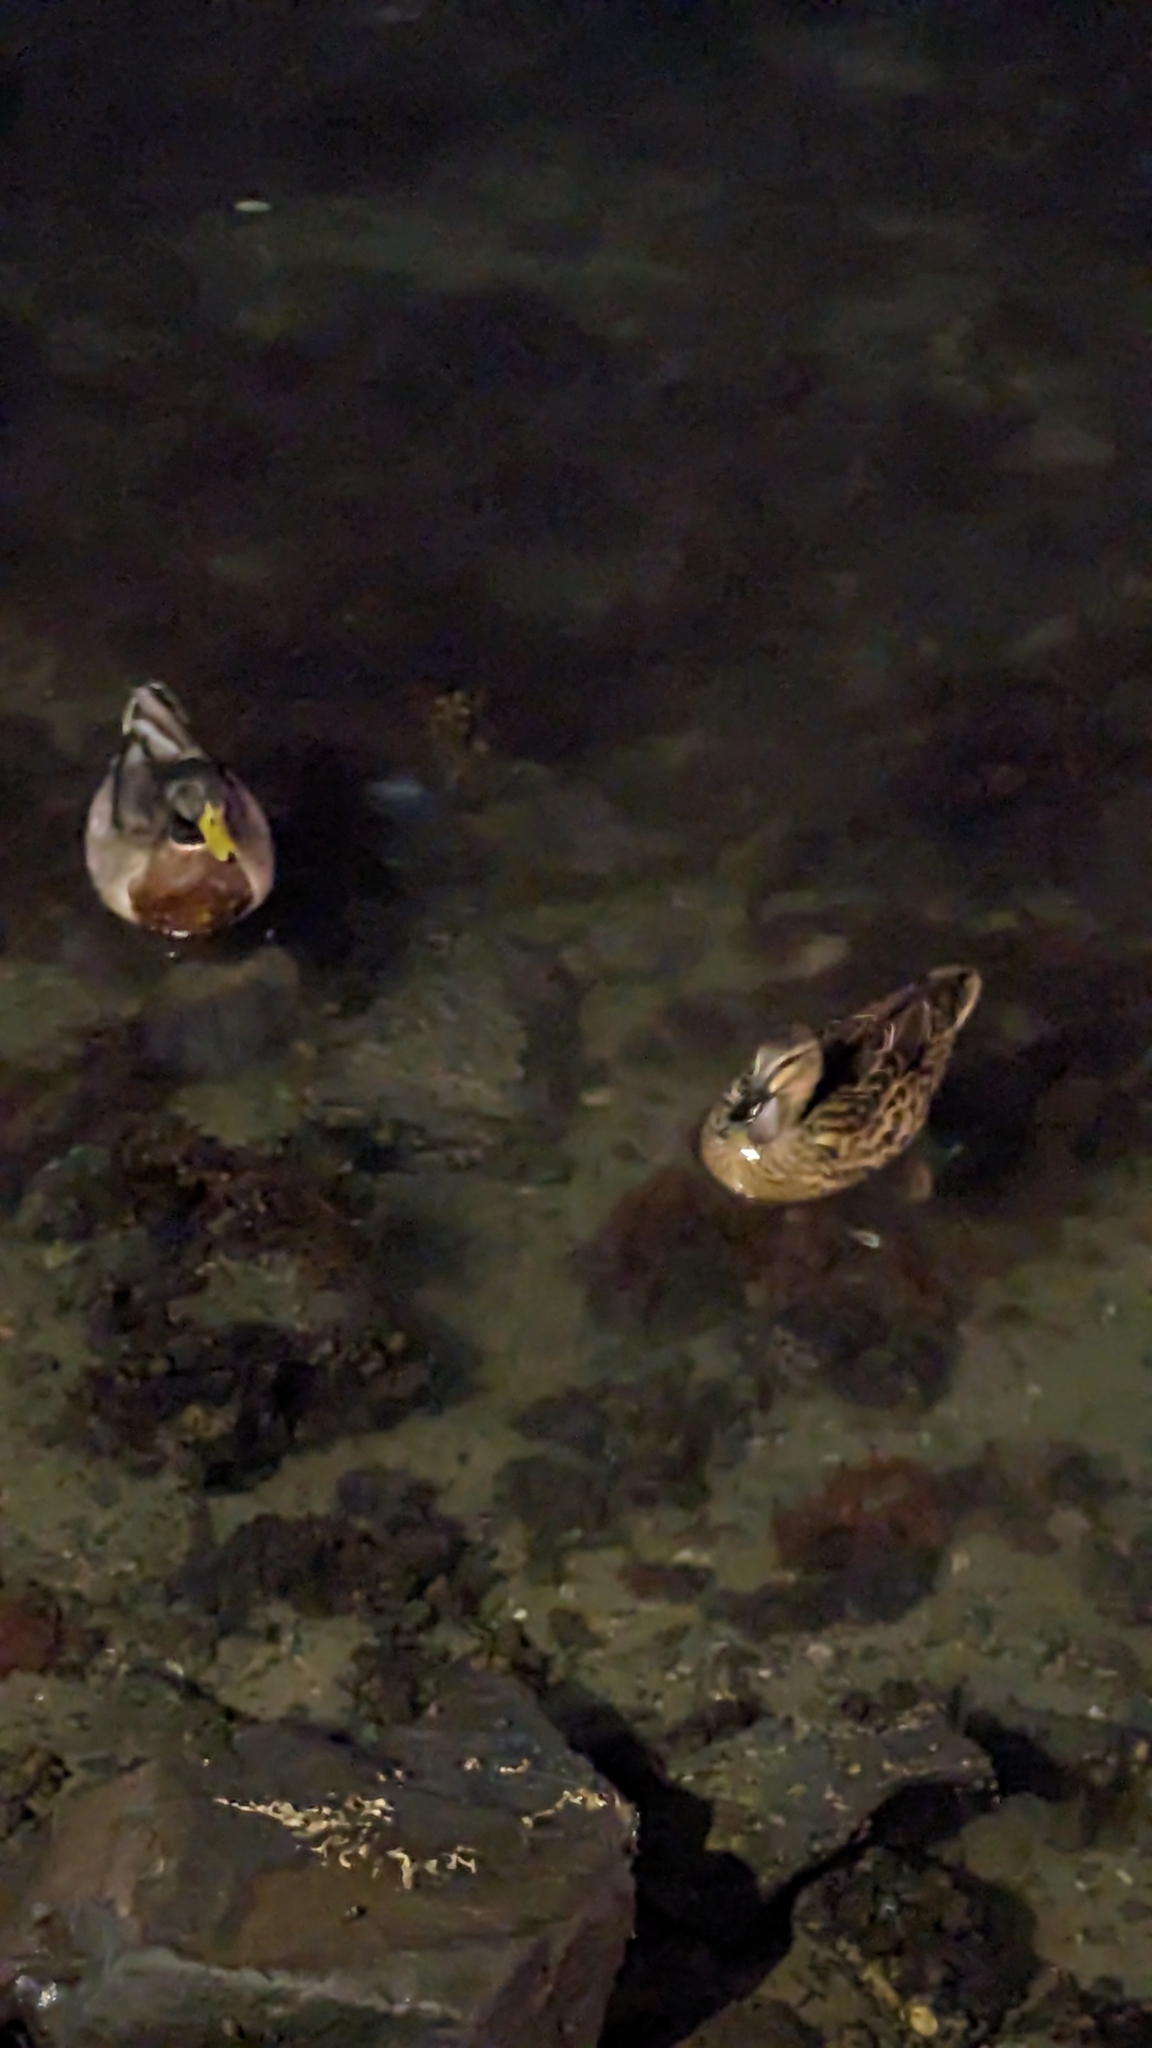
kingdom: Animalia
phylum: Chordata
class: Aves
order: Anseriformes
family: Anatidae
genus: Anas
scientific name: Anas
